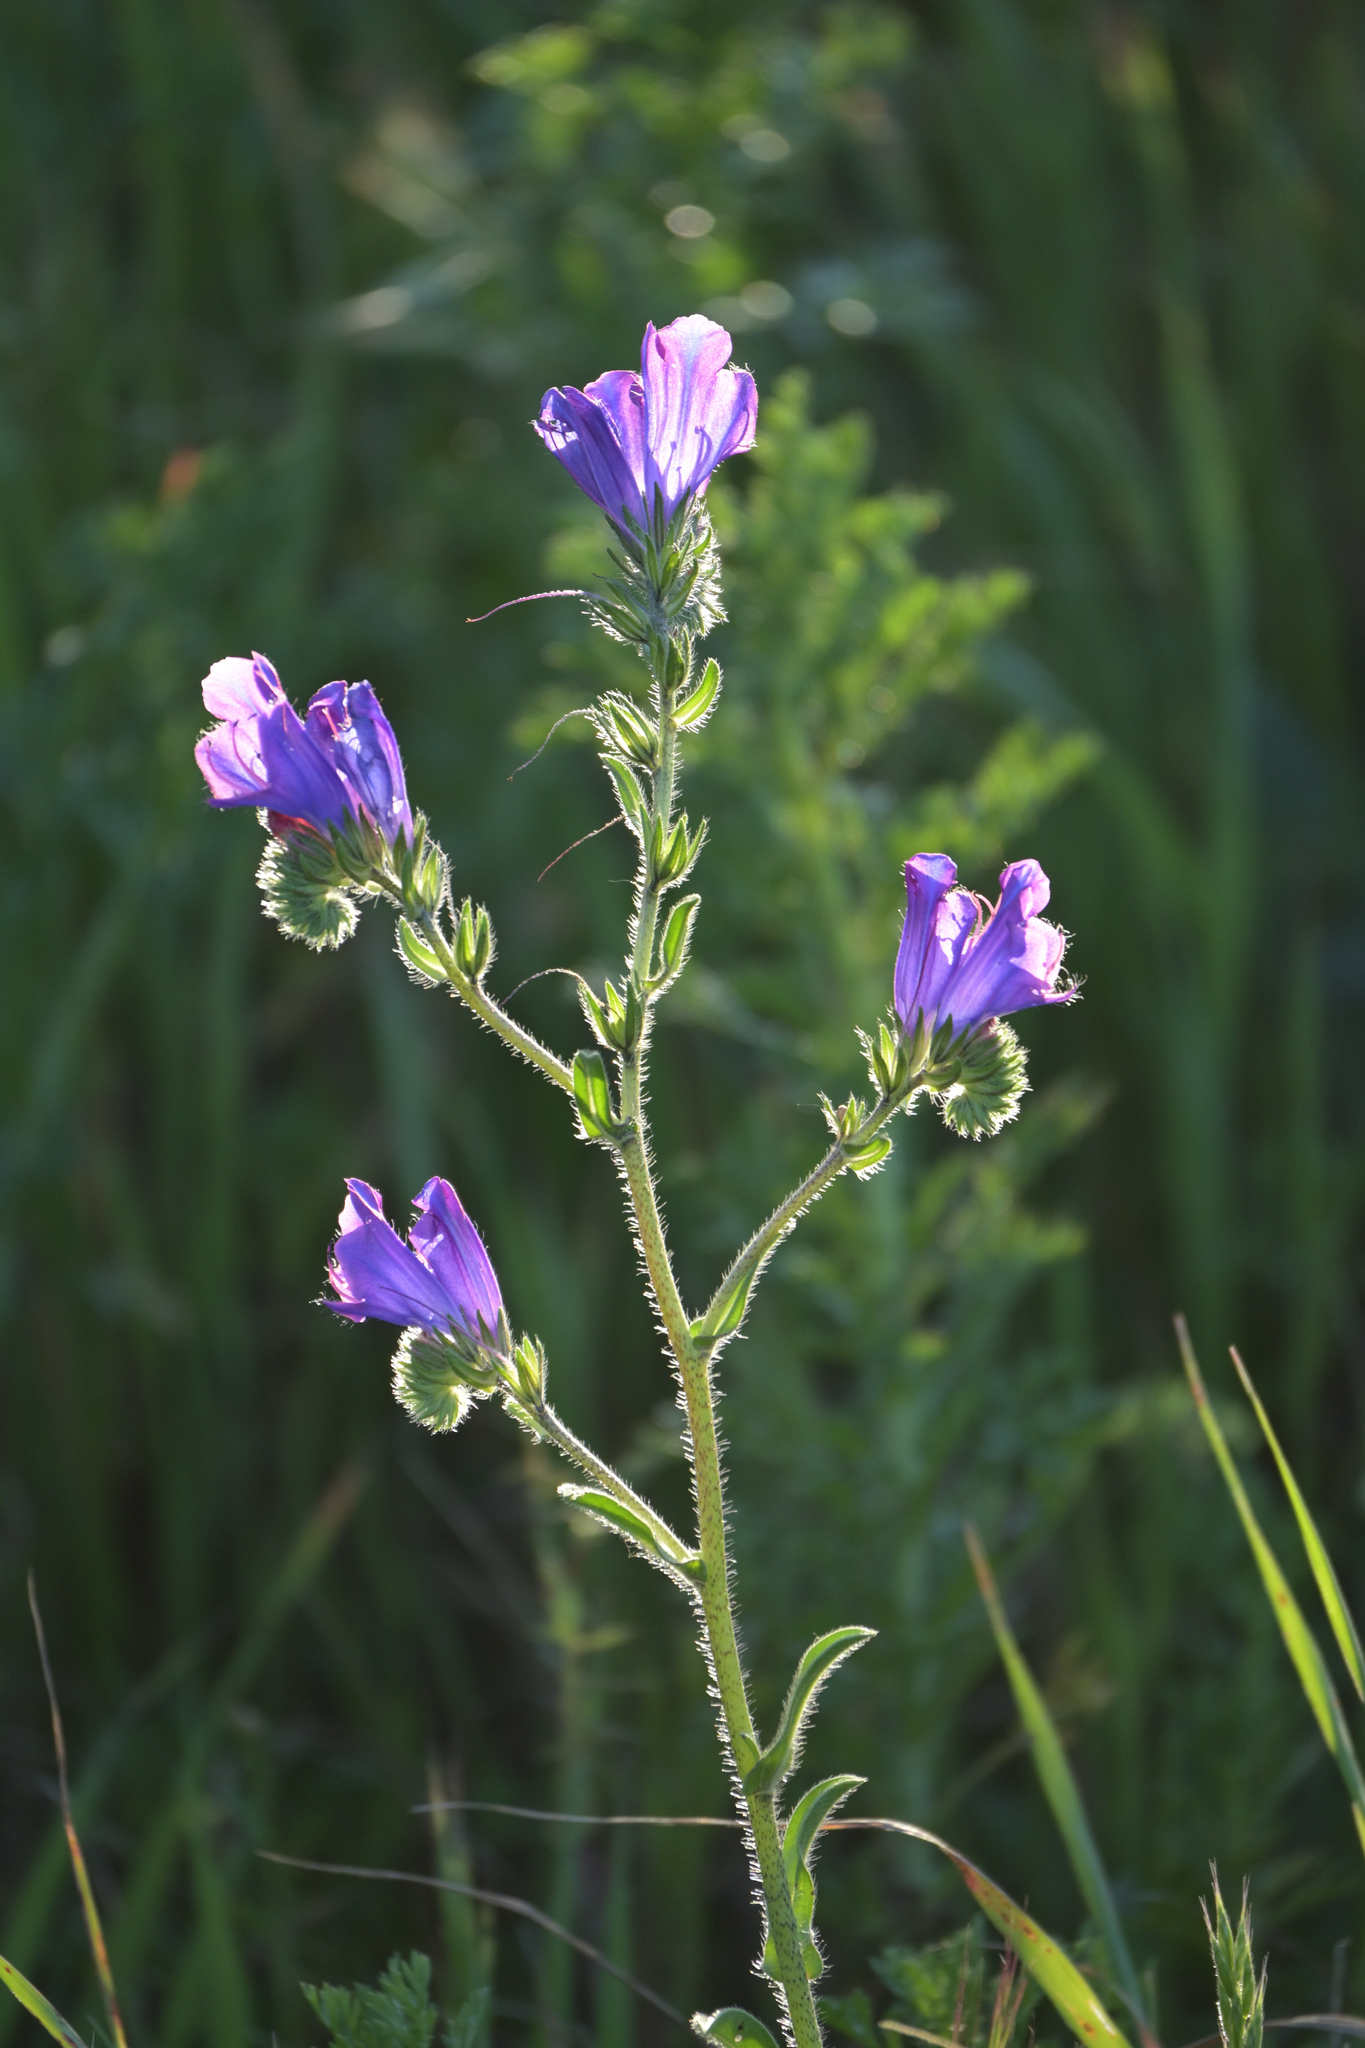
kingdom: Plantae
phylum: Tracheophyta
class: Magnoliopsida
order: Boraginales
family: Boraginaceae
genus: Echium
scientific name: Echium plantagineum
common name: Purple viper's-bugloss
